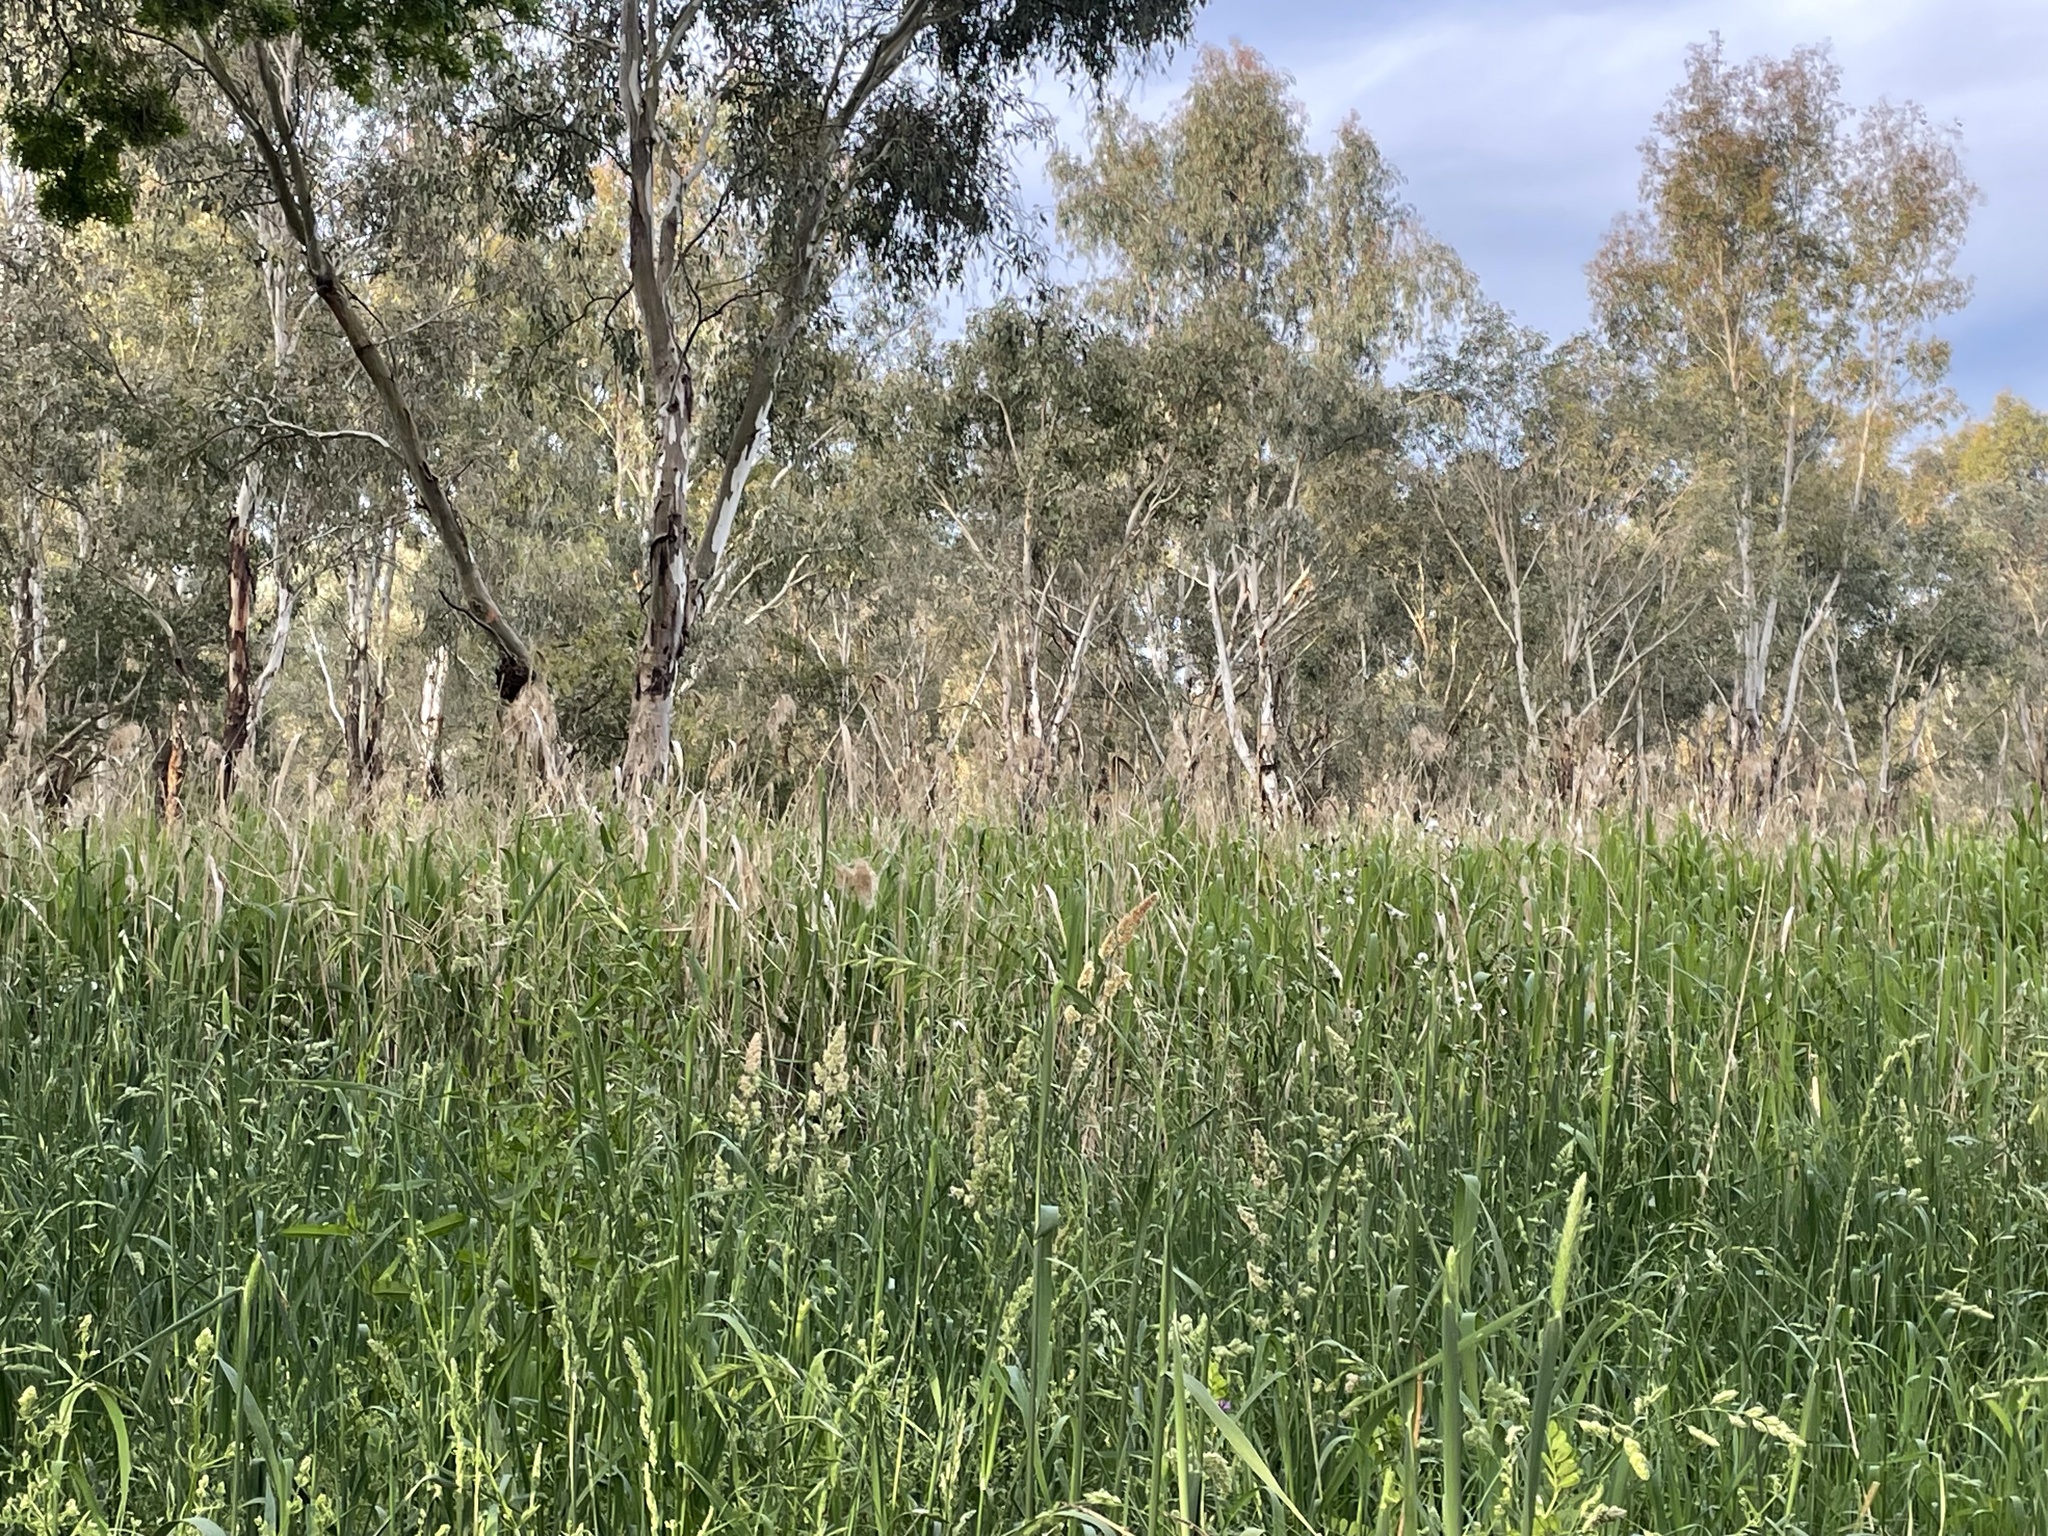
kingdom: Plantae
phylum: Tracheophyta
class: Liliopsida
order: Poales
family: Poaceae
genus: Phragmites
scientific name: Phragmites australis
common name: Common reed
